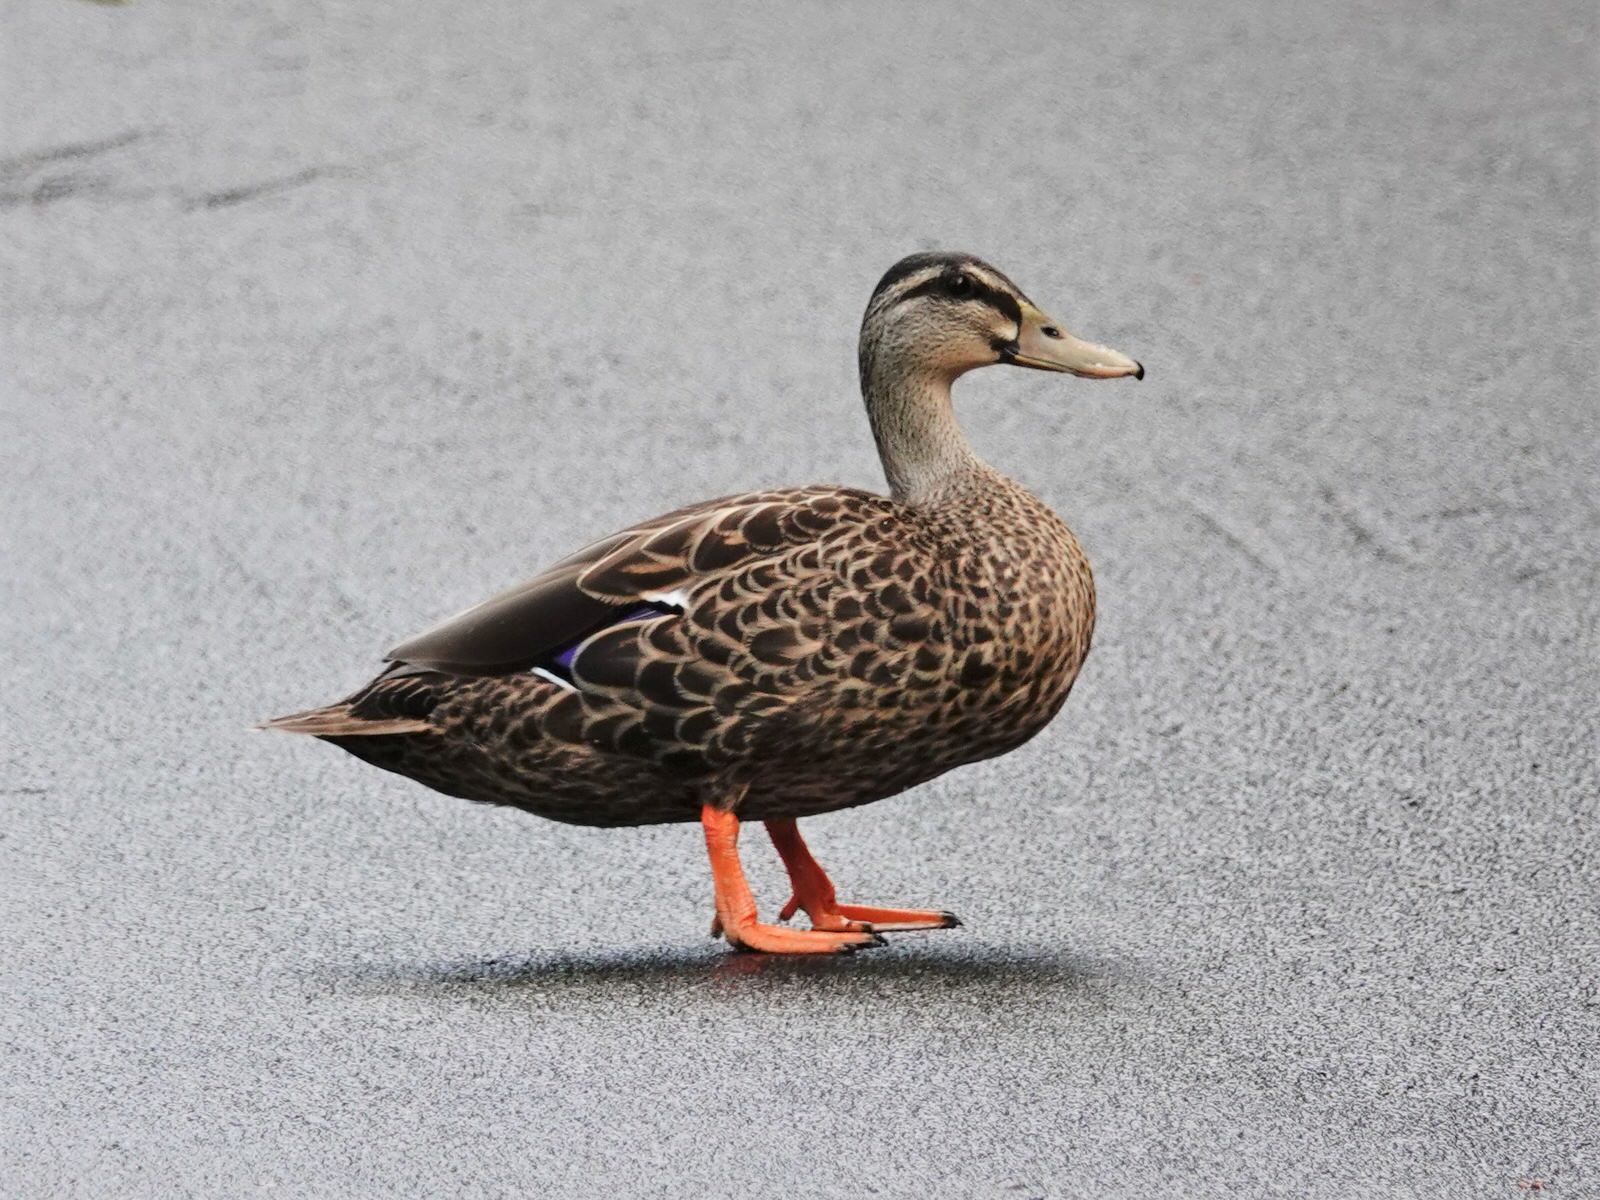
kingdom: Animalia
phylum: Chordata
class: Aves
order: Anseriformes
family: Anatidae
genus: Anas
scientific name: Anas
